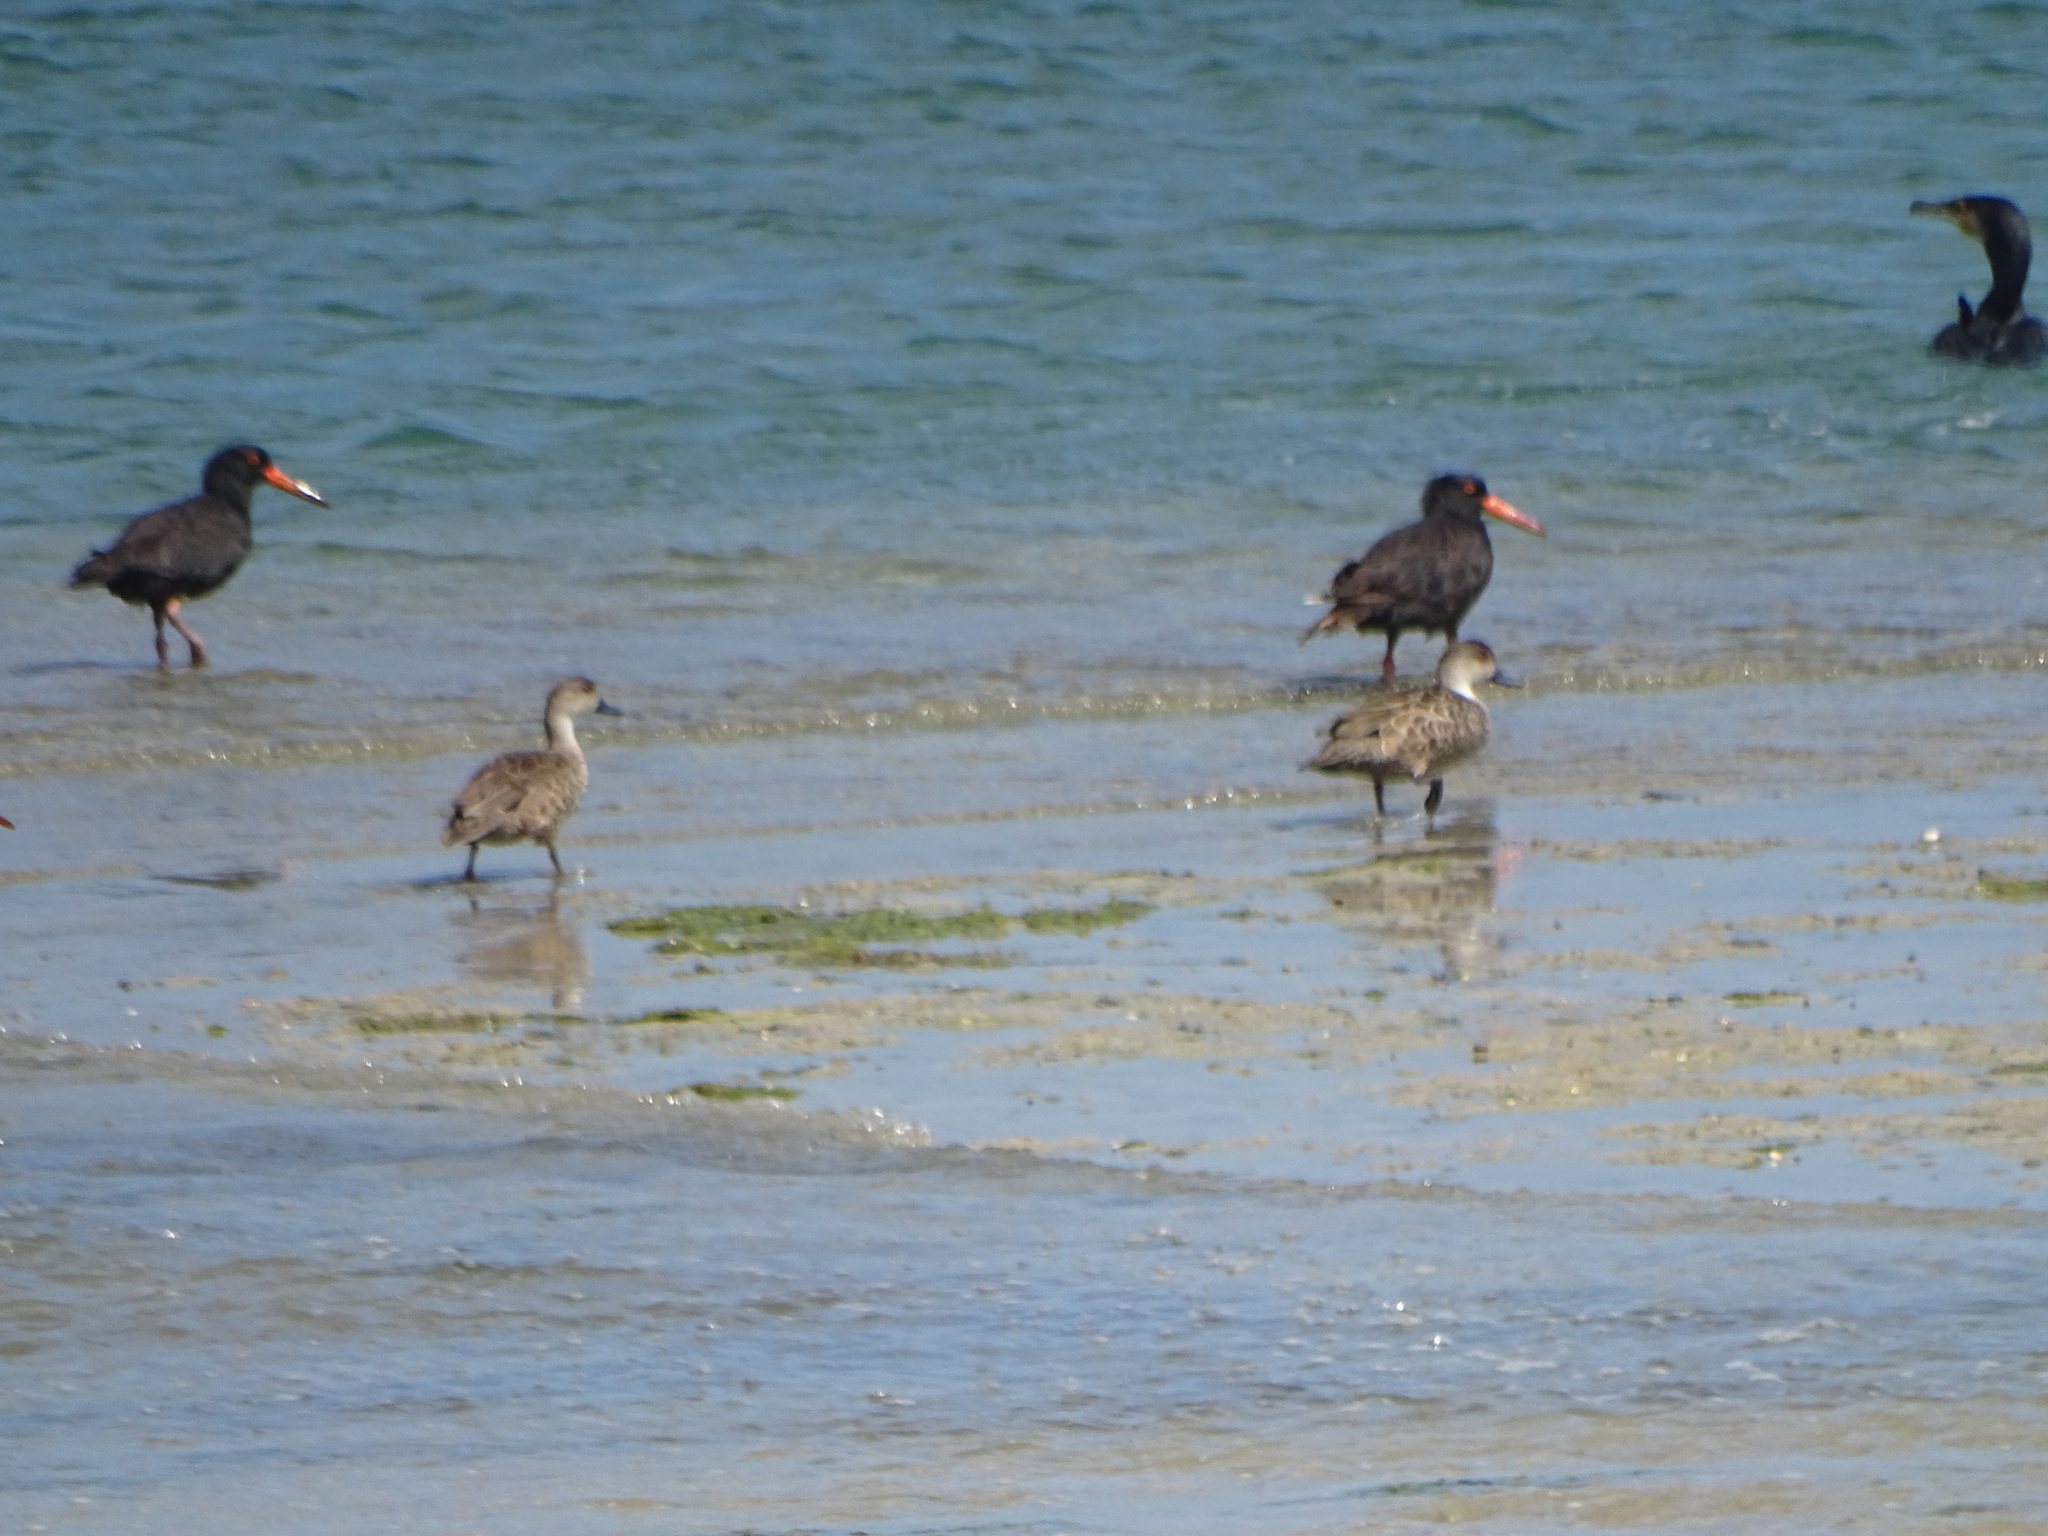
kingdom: Animalia
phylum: Chordata
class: Aves
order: Charadriiformes
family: Haematopodidae
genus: Haematopus
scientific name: Haematopus fuliginosus
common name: Sooty oystercatcher
